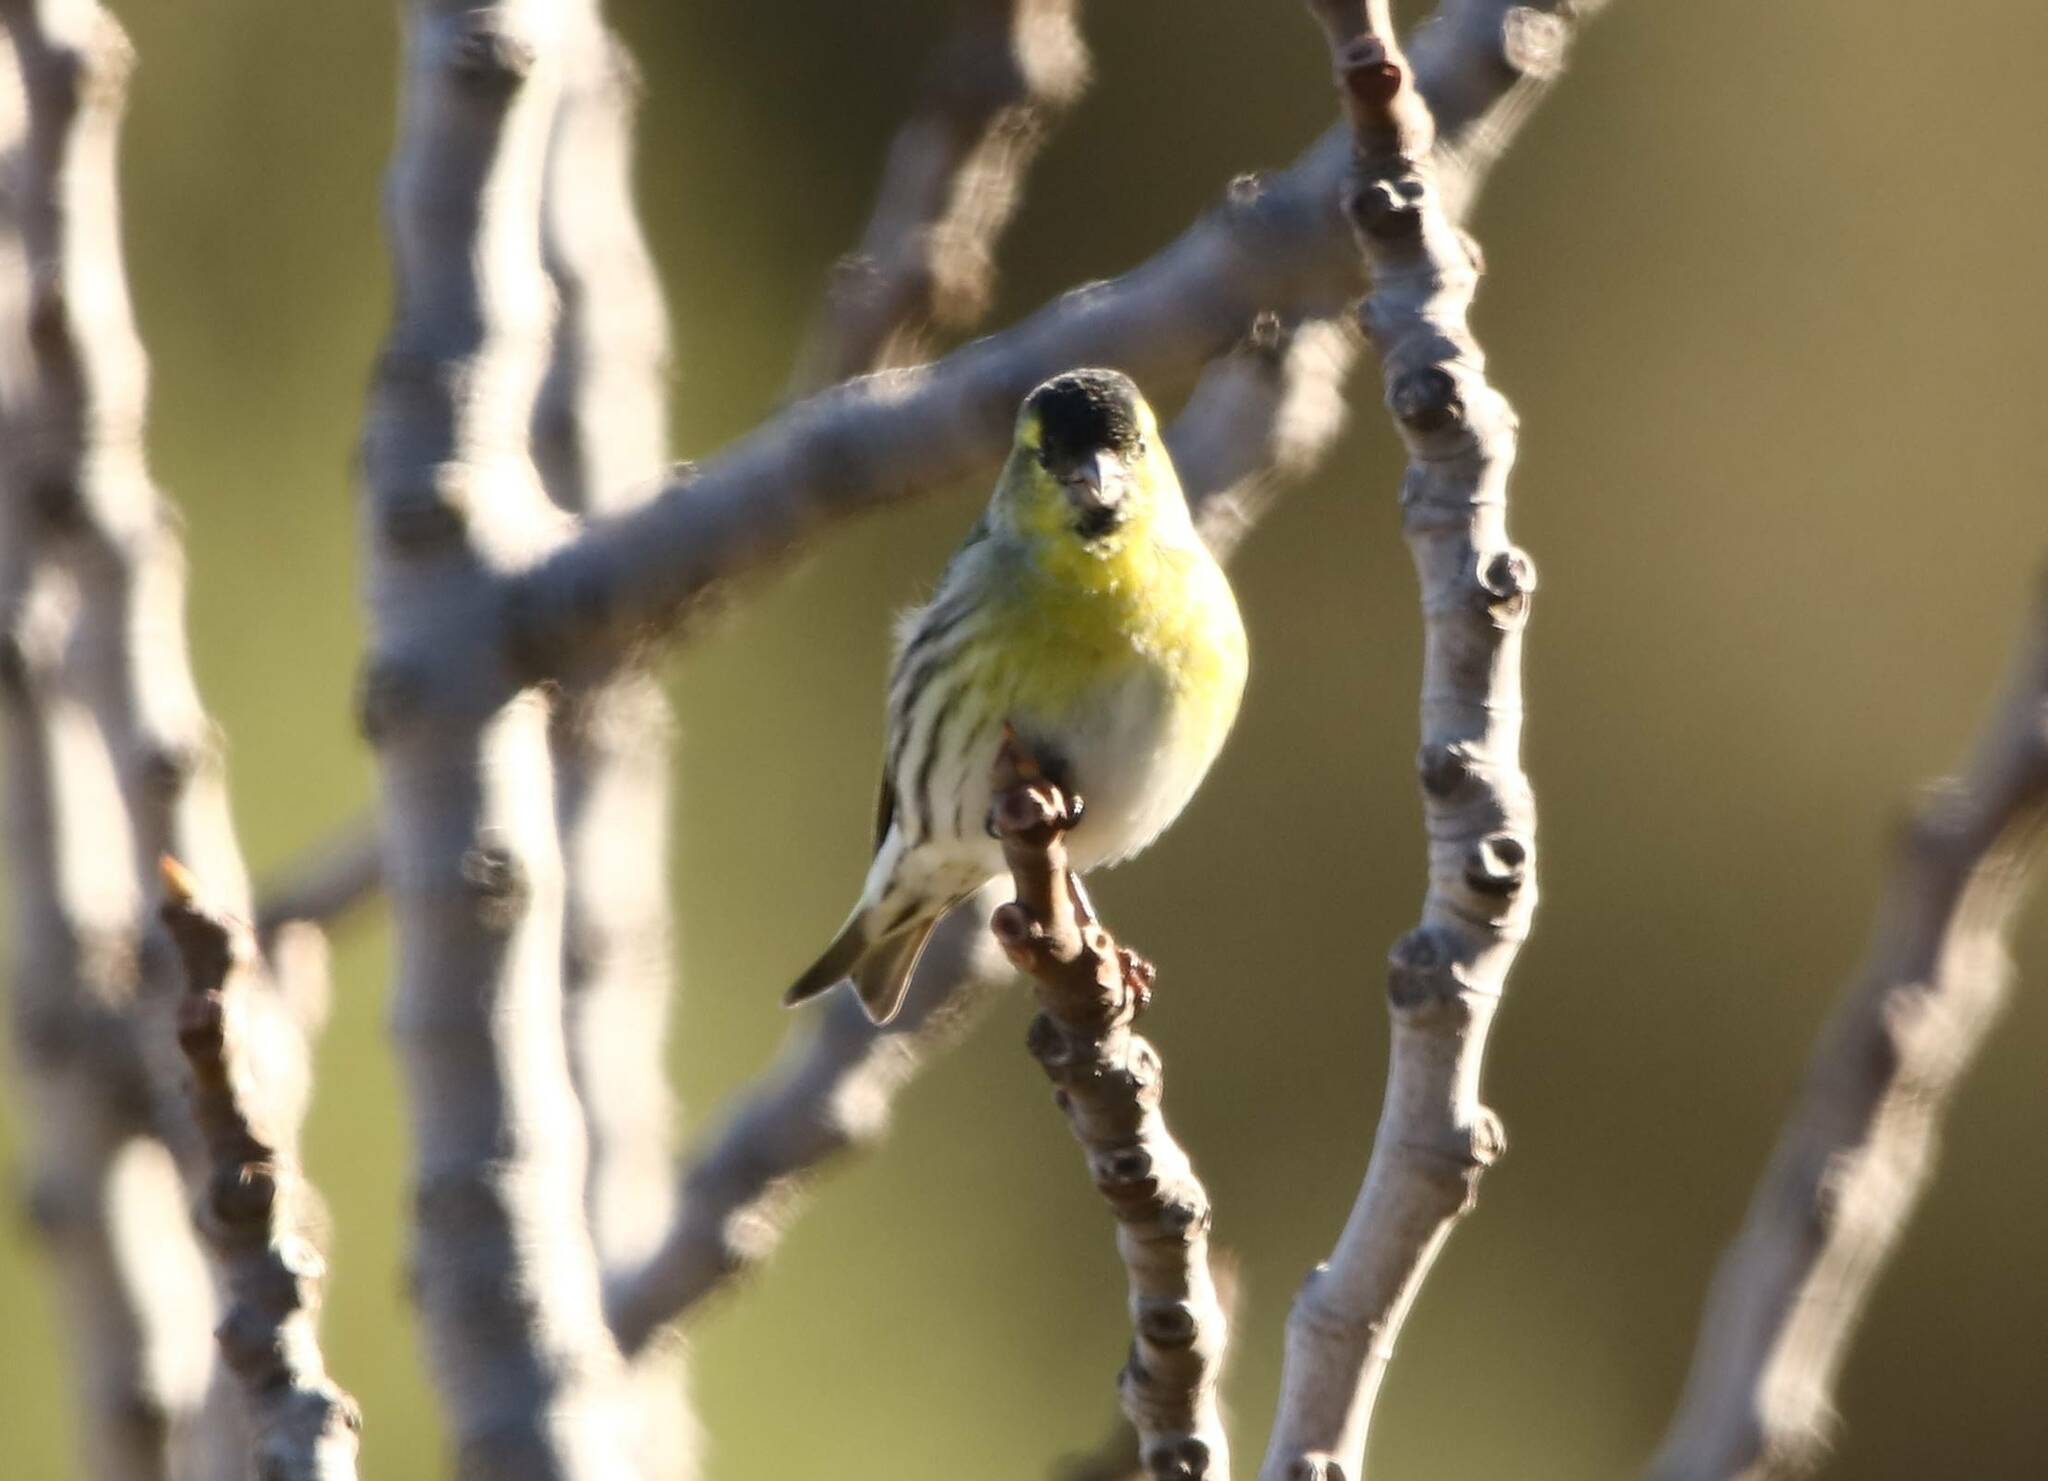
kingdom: Animalia
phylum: Chordata
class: Aves
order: Passeriformes
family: Fringillidae
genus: Spinus
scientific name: Spinus spinus
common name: Eurasian siskin
